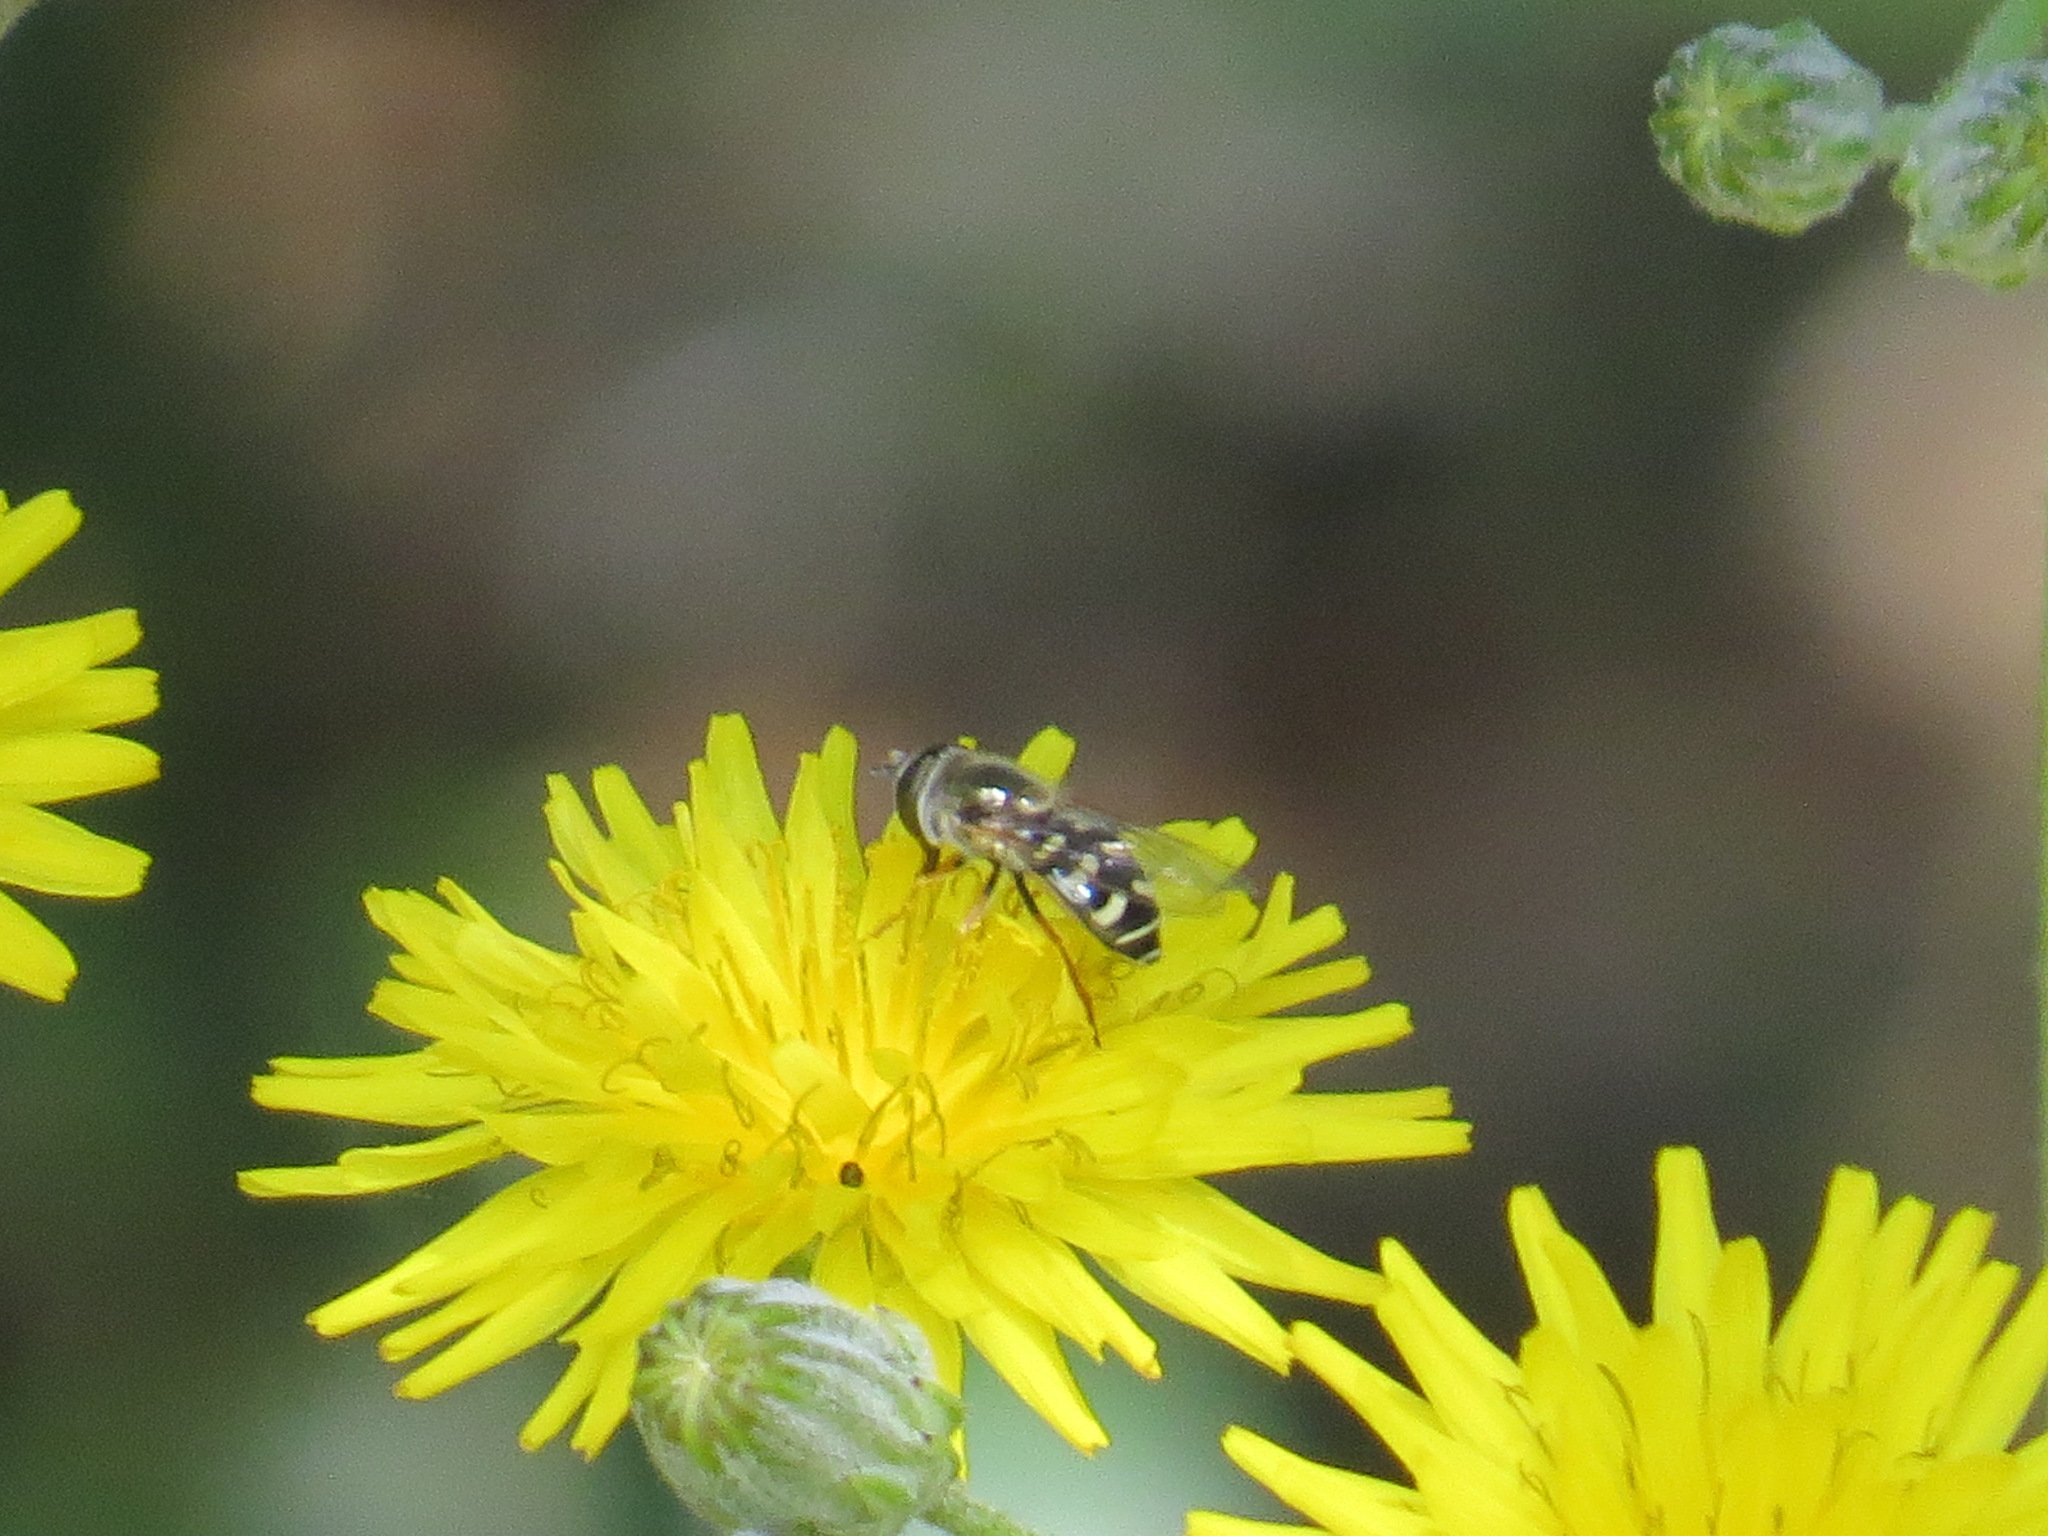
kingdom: Animalia
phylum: Arthropoda
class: Insecta
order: Diptera
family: Syrphidae
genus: Eupeodes
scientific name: Eupeodes volucris
